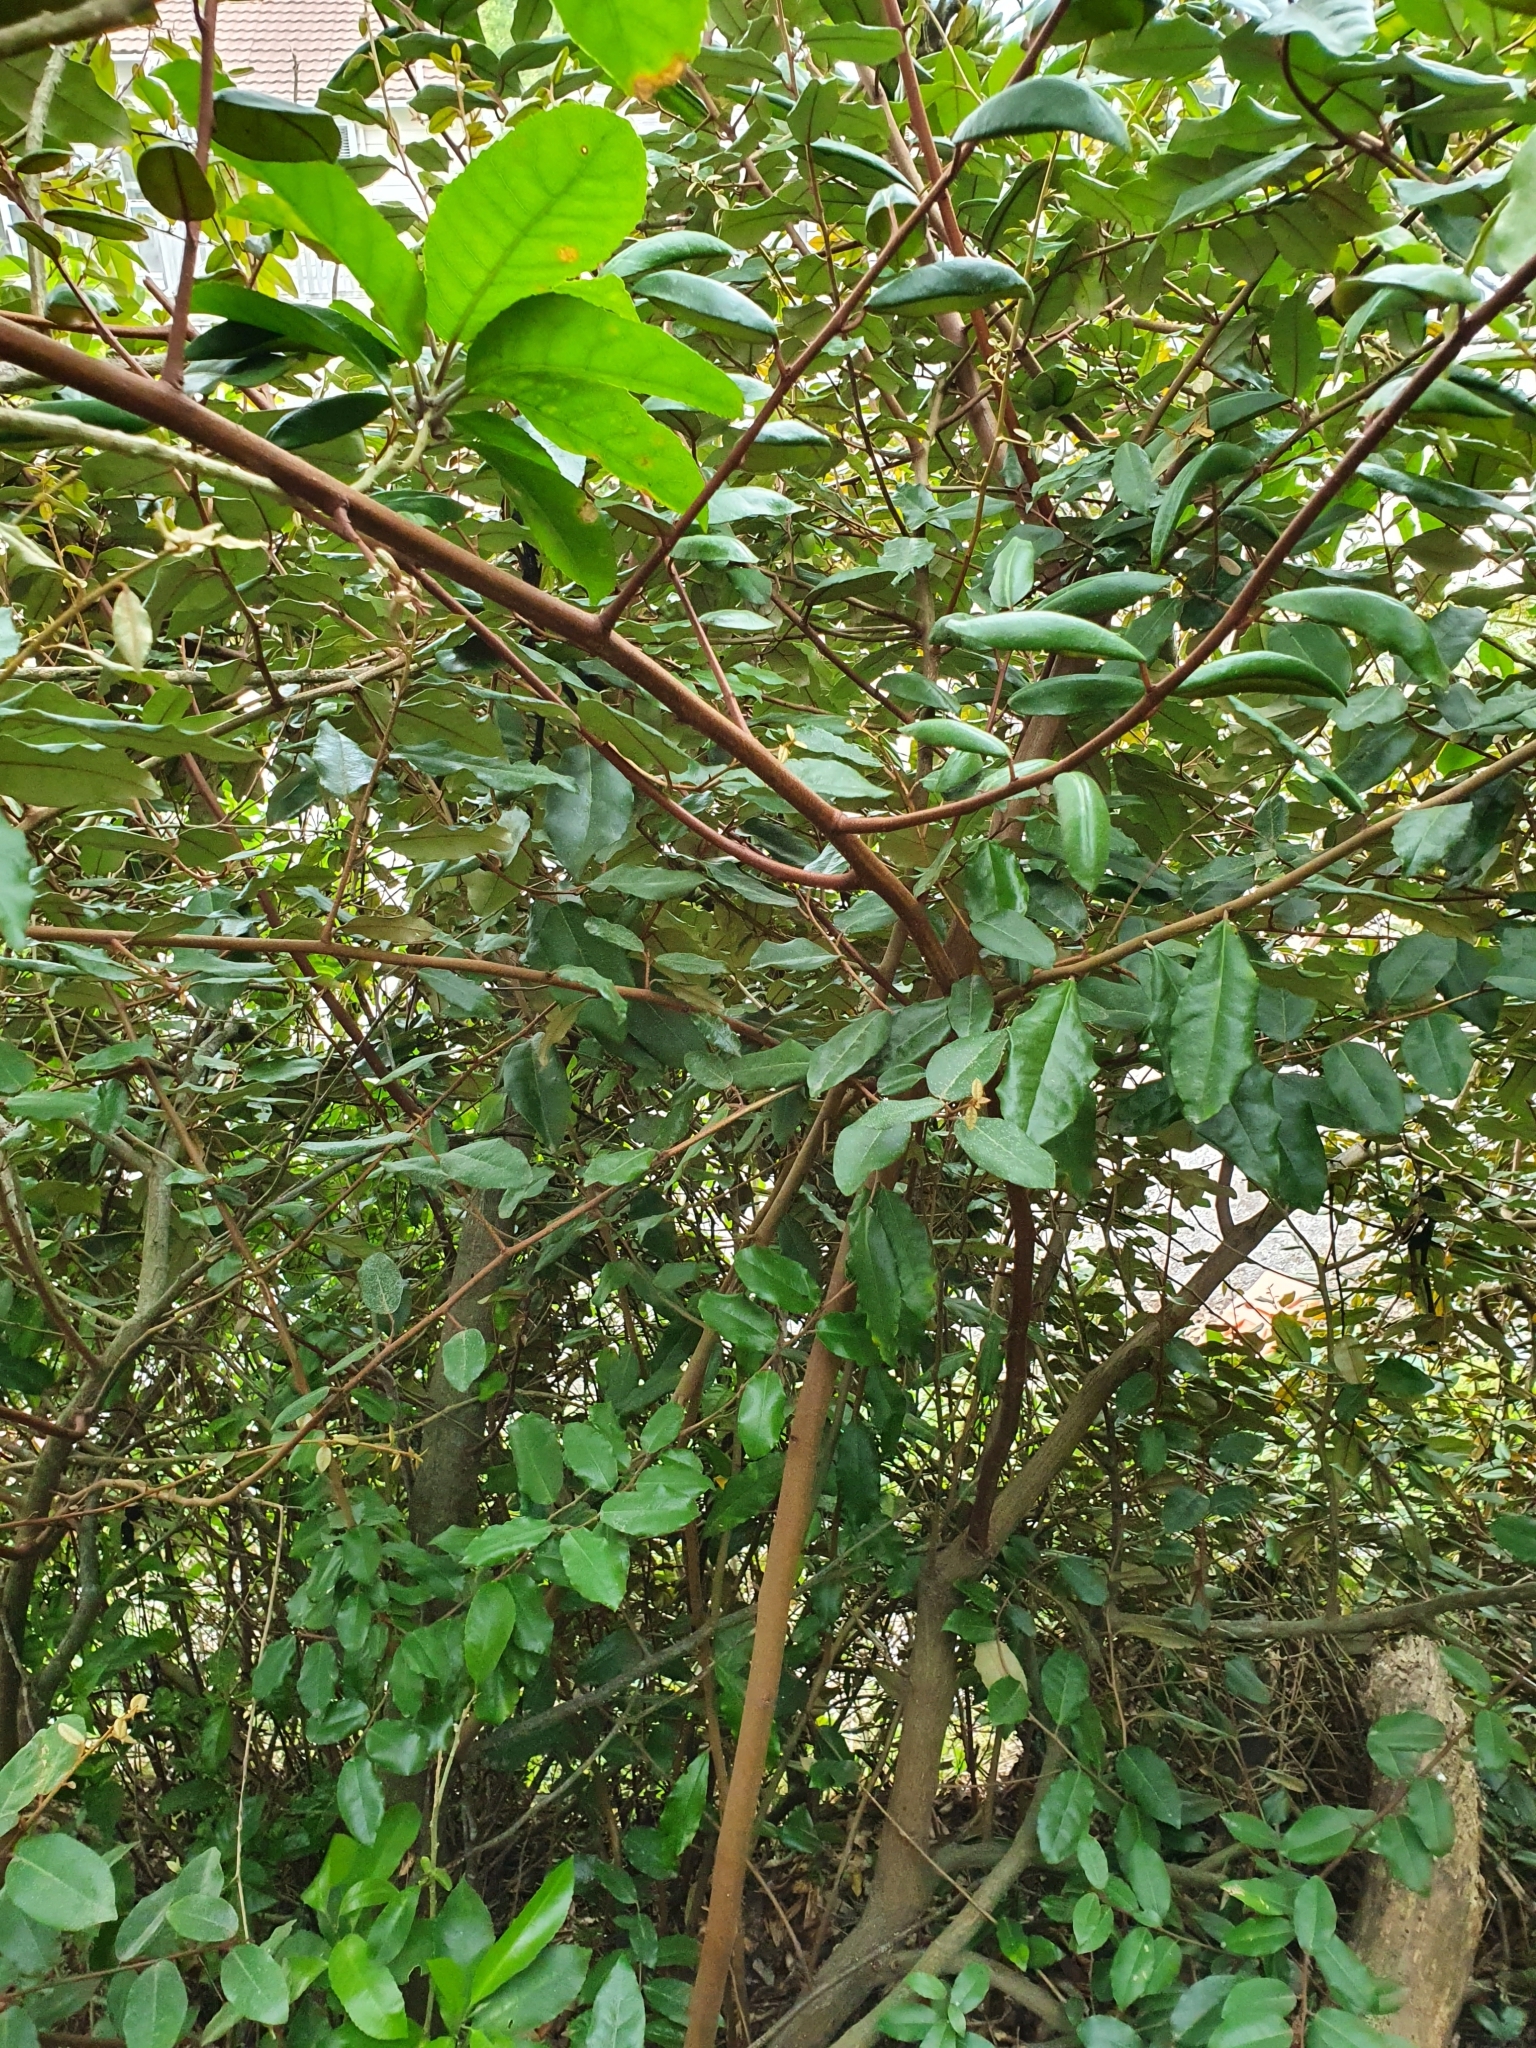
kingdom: Plantae
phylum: Tracheophyta
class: Magnoliopsida
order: Rosales
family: Elaeagnaceae
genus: Elaeagnus
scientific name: Elaeagnus reflexa
